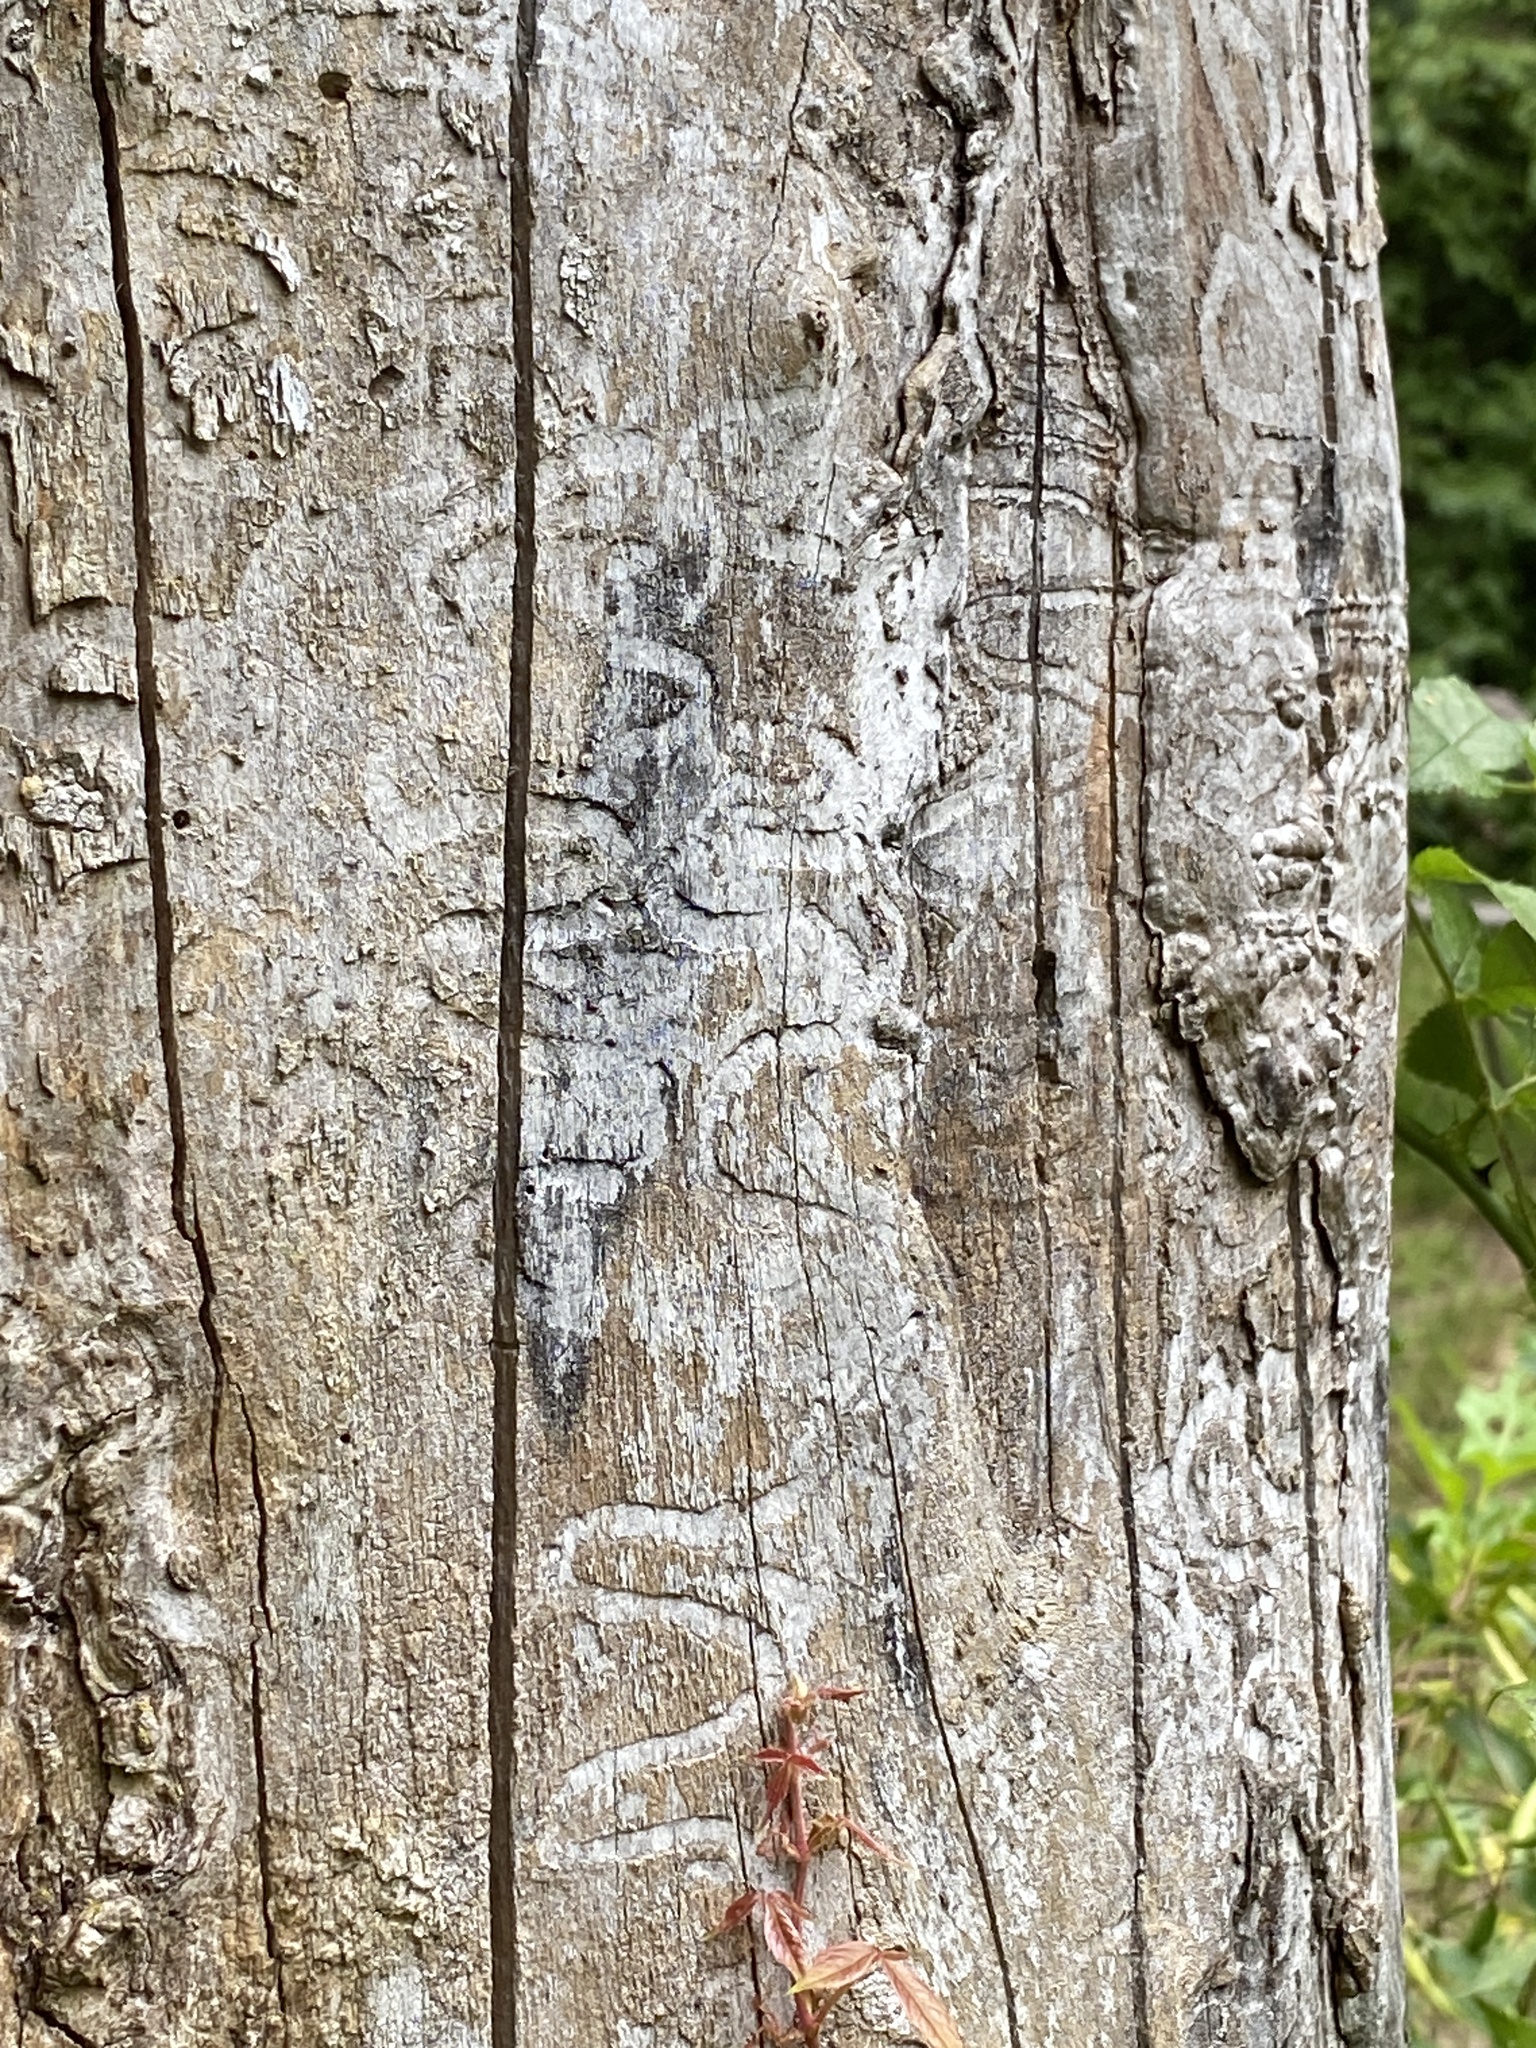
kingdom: Animalia
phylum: Arthropoda
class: Insecta
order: Coleoptera
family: Buprestidae
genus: Agrilus
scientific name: Agrilus planipennis
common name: Emerald ash borer
